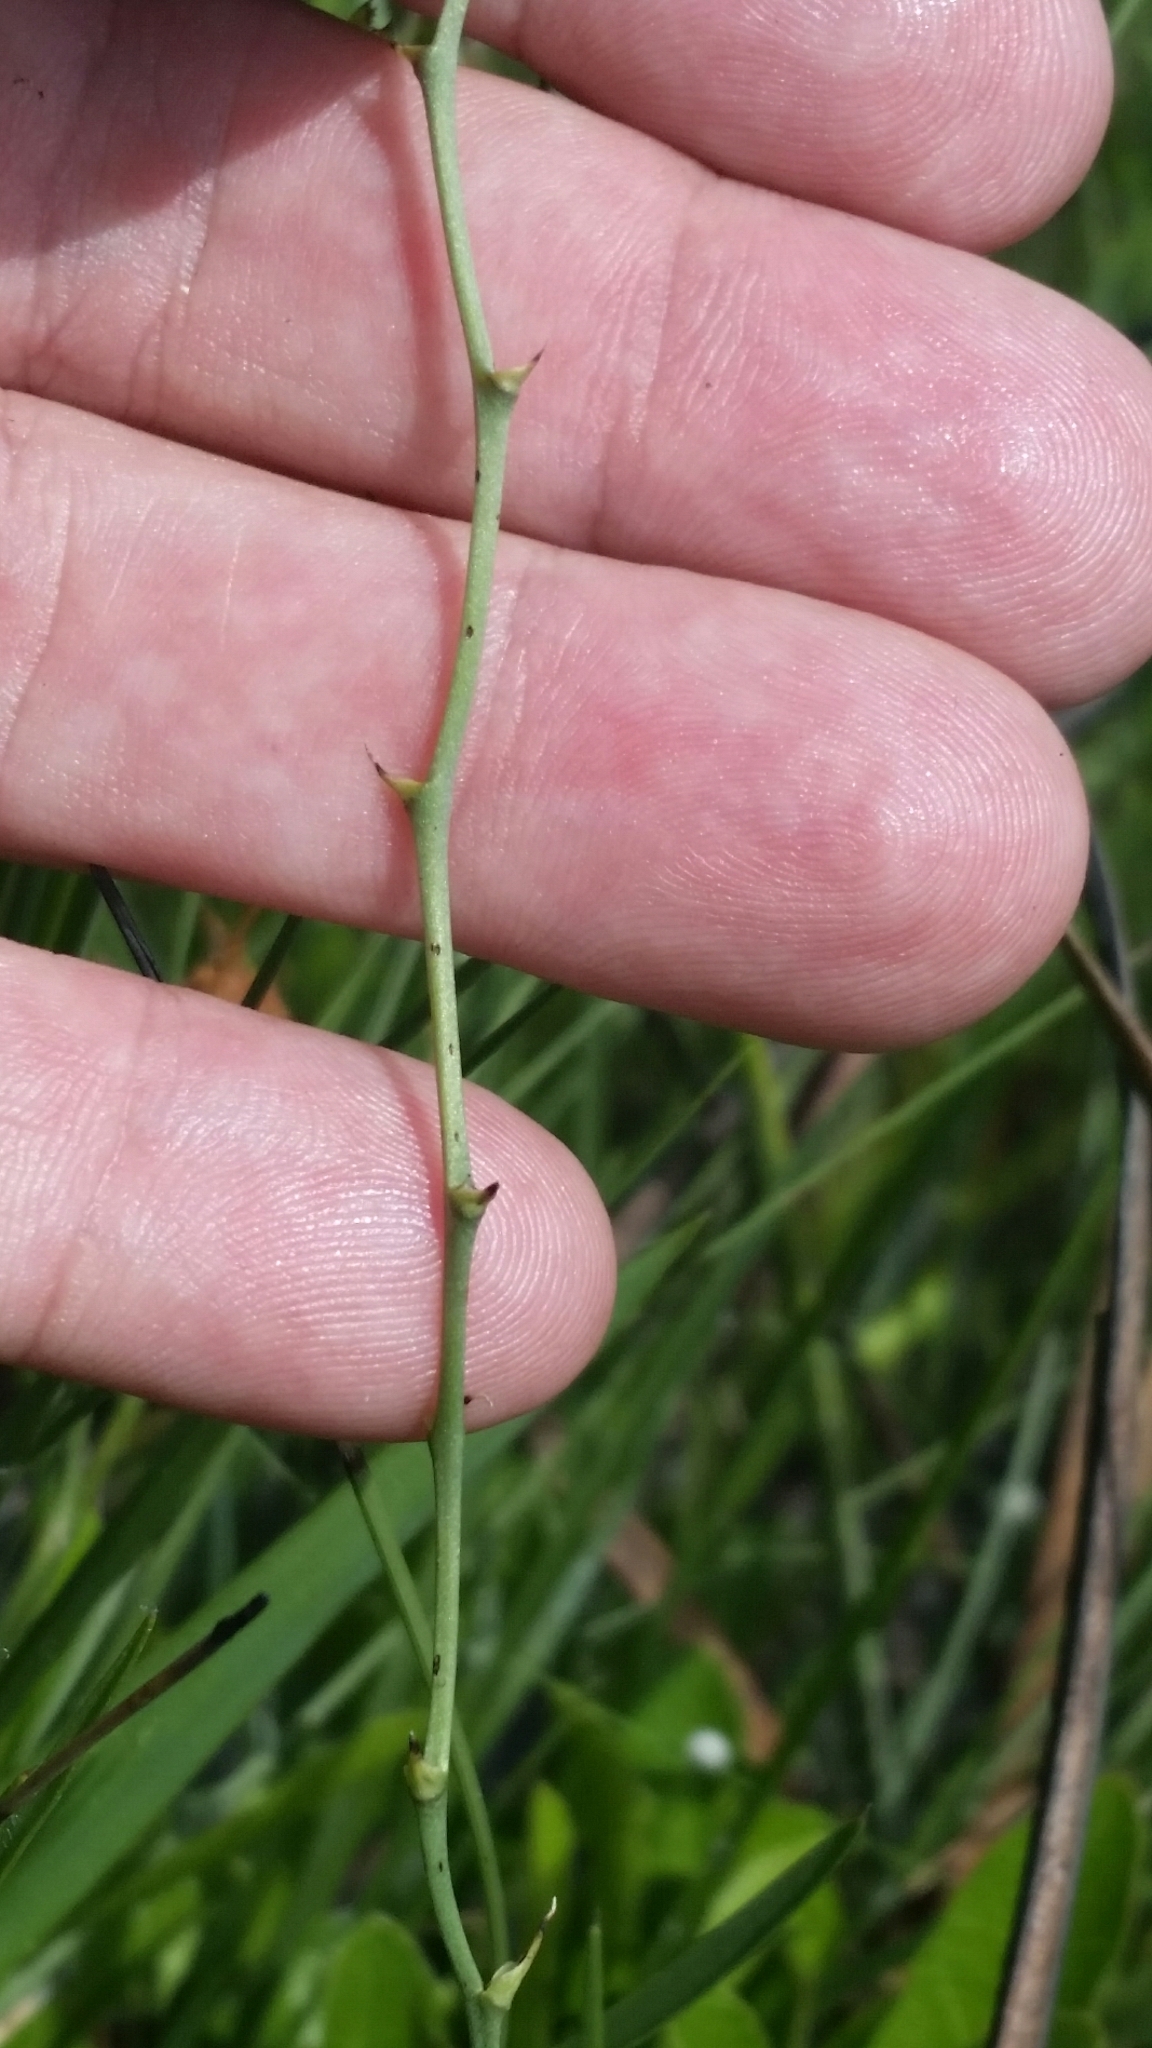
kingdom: Plantae
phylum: Tracheophyta
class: Liliopsida
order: Asparagales
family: Orchidaceae
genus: Calopogon
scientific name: Calopogon pallidus
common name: Pale grasspink
